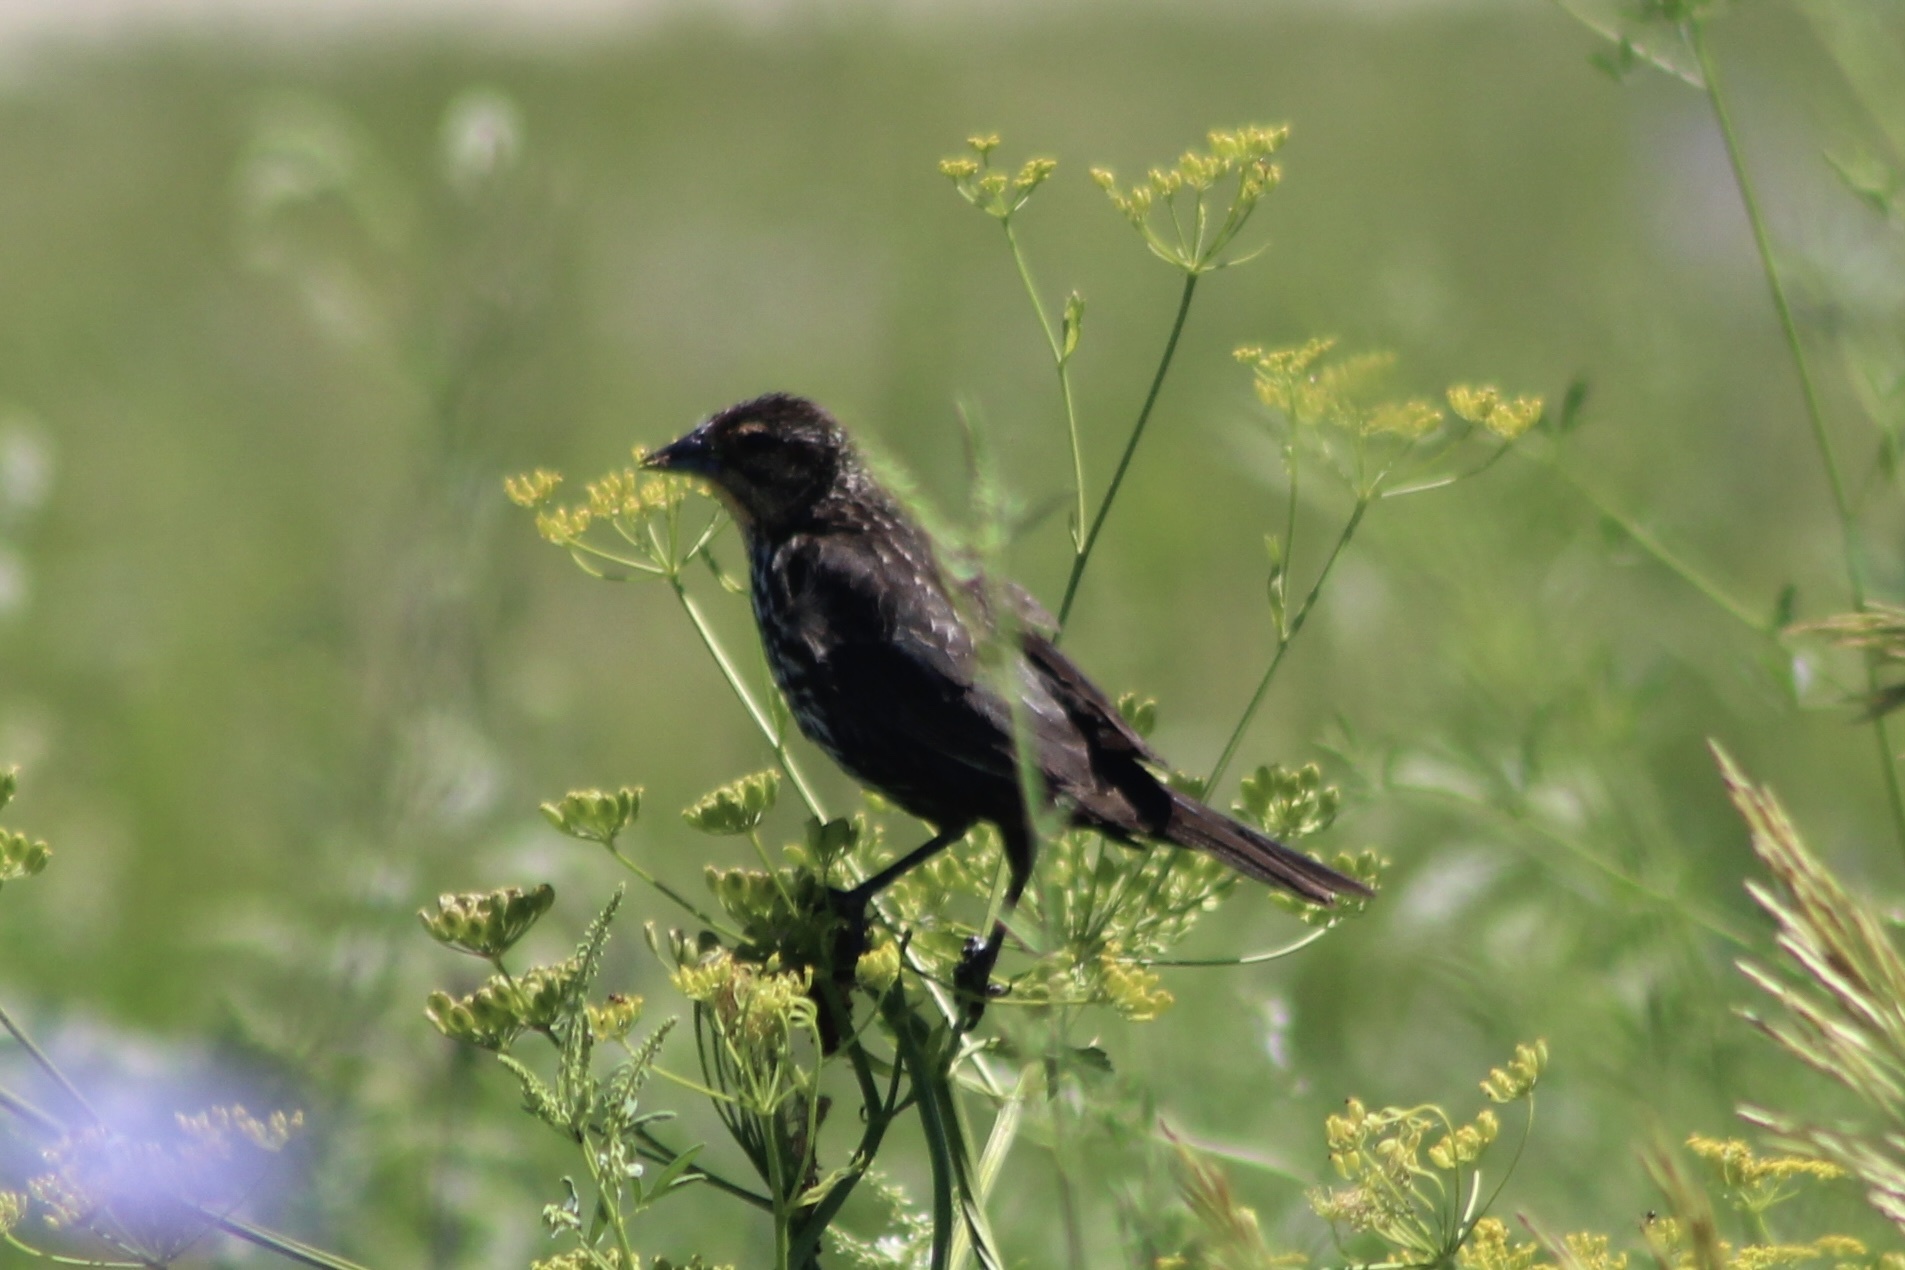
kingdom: Animalia
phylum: Chordata
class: Aves
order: Passeriformes
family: Icteridae
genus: Agelaius
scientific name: Agelaius phoeniceus
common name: Red-winged blackbird
